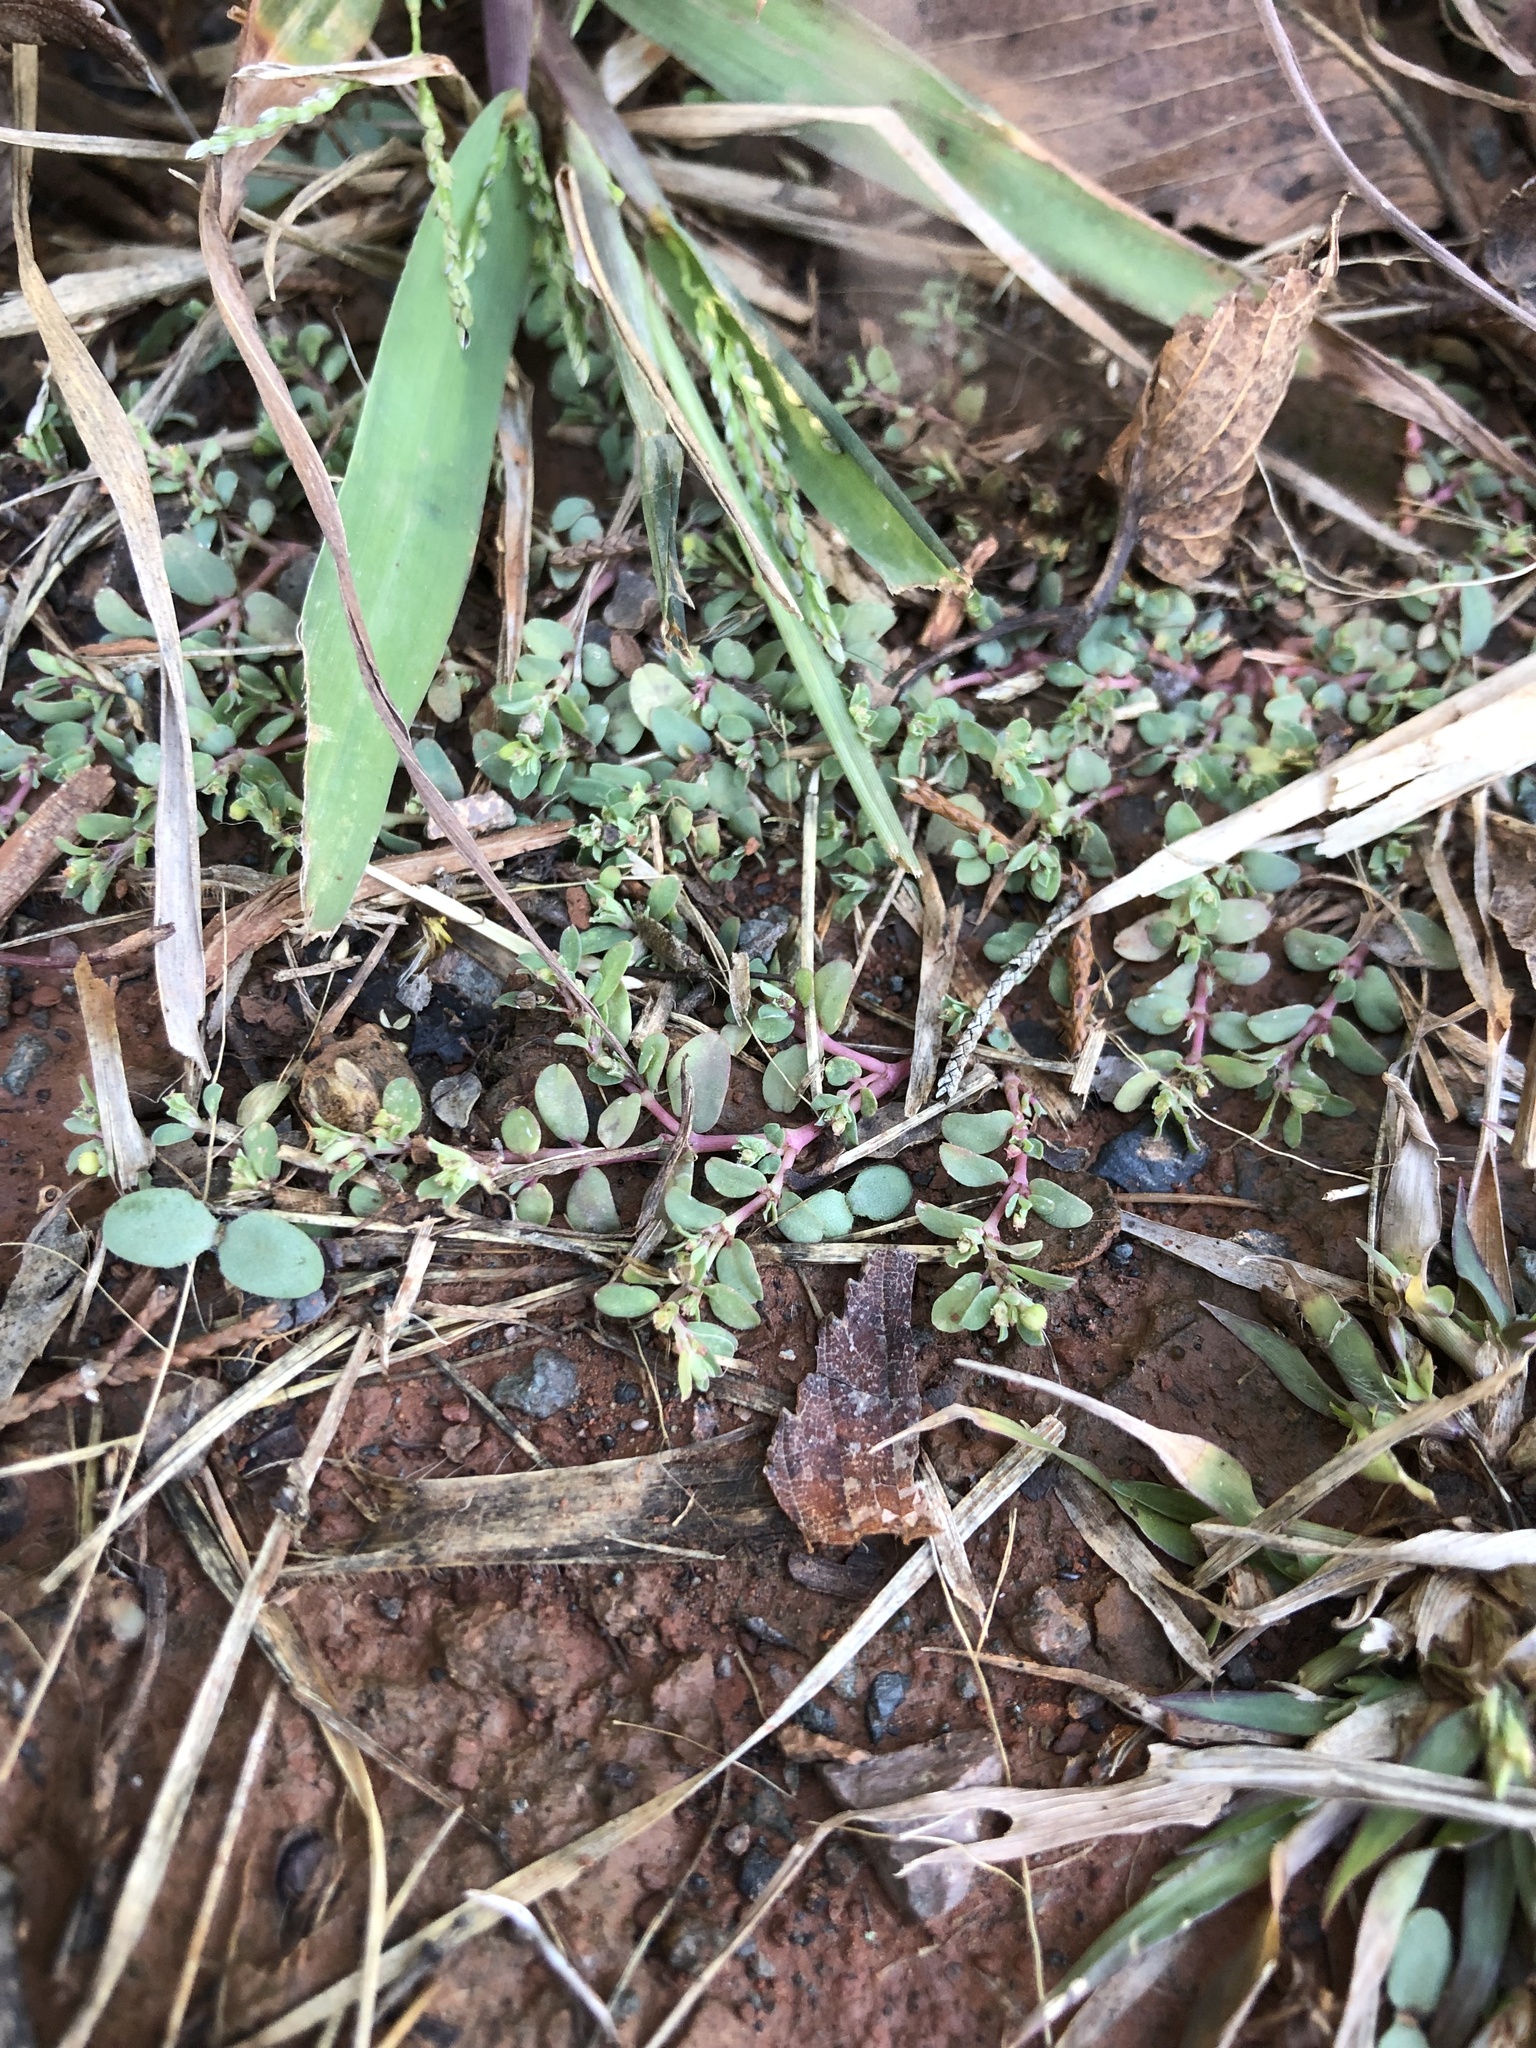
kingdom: Plantae
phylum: Tracheophyta
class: Magnoliopsida
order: Malpighiales
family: Euphorbiaceae
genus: Euphorbia
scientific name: Euphorbia serpens
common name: Matted sandmat
